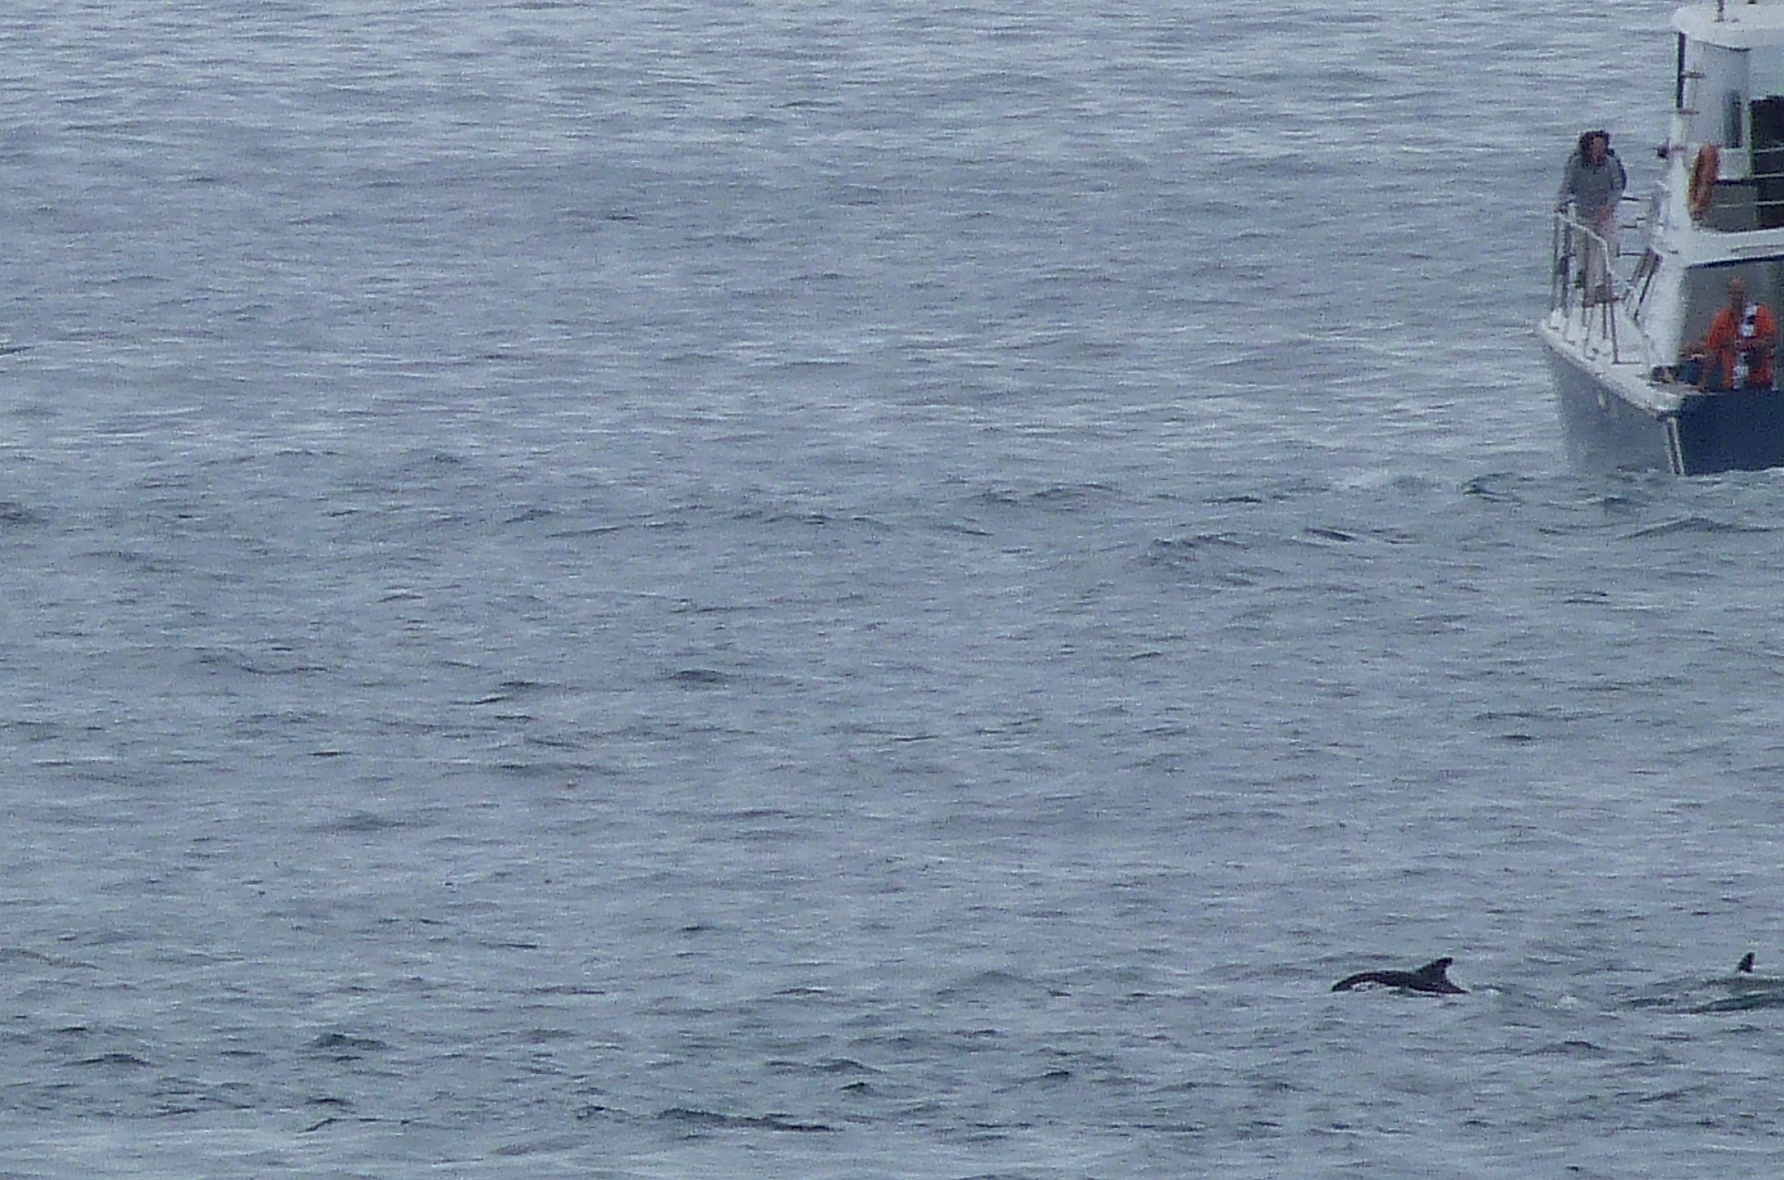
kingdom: Animalia
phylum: Chordata
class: Mammalia
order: Cetacea
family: Delphinidae
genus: Lagenorhynchus
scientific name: Lagenorhynchus obscurus
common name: Dusky dolphin
